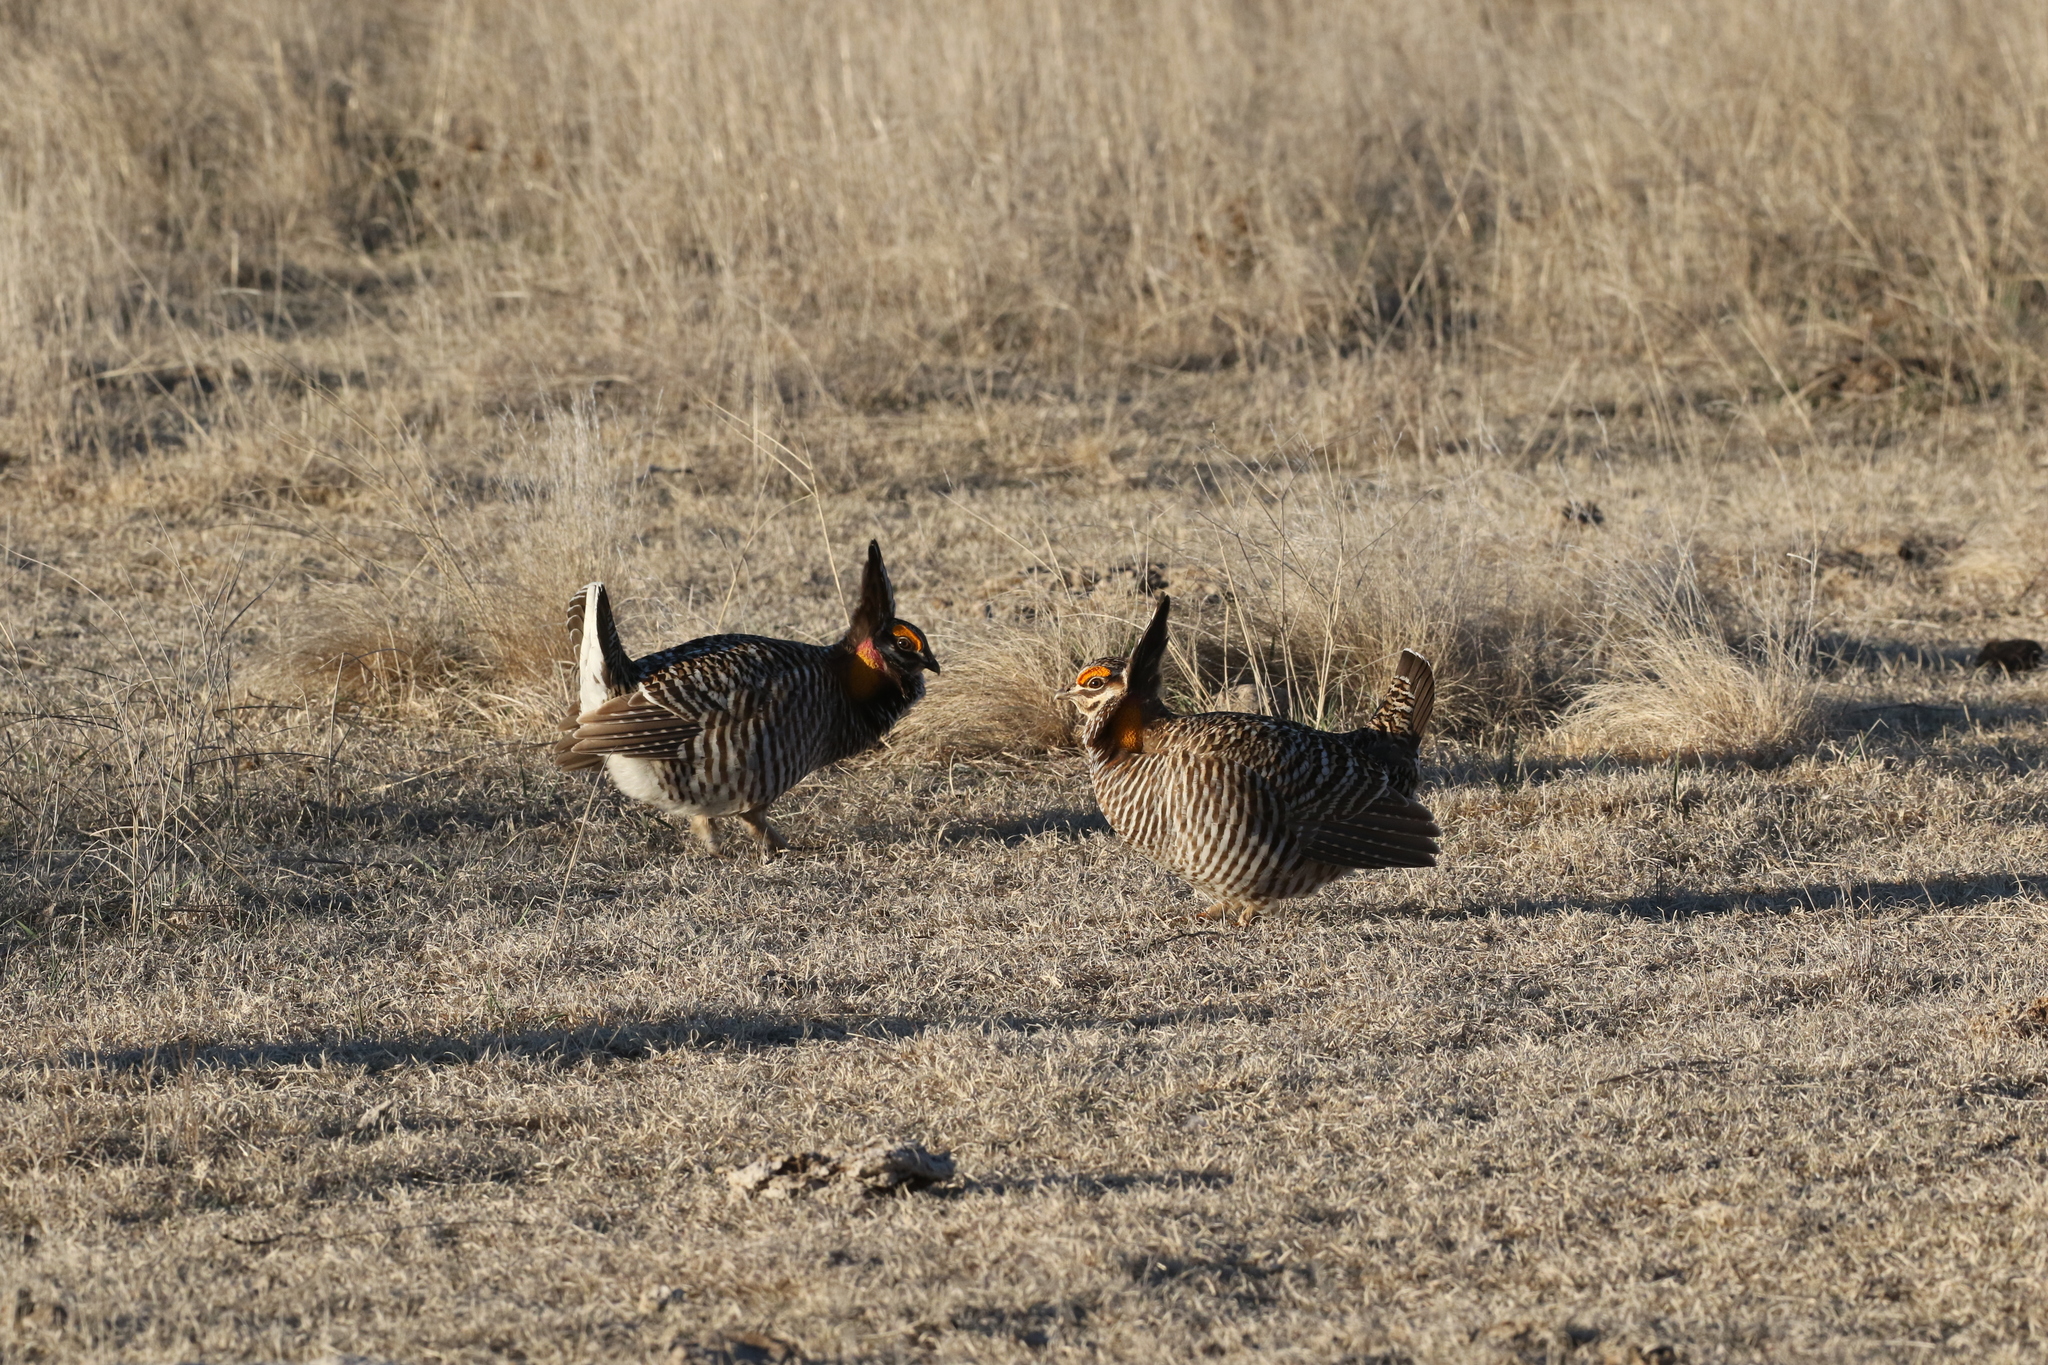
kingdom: Animalia
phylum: Chordata
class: Aves
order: Galliformes
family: Phasianidae
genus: Tympanuchus
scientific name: Tympanuchus cupido
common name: Greater prairie chicken
